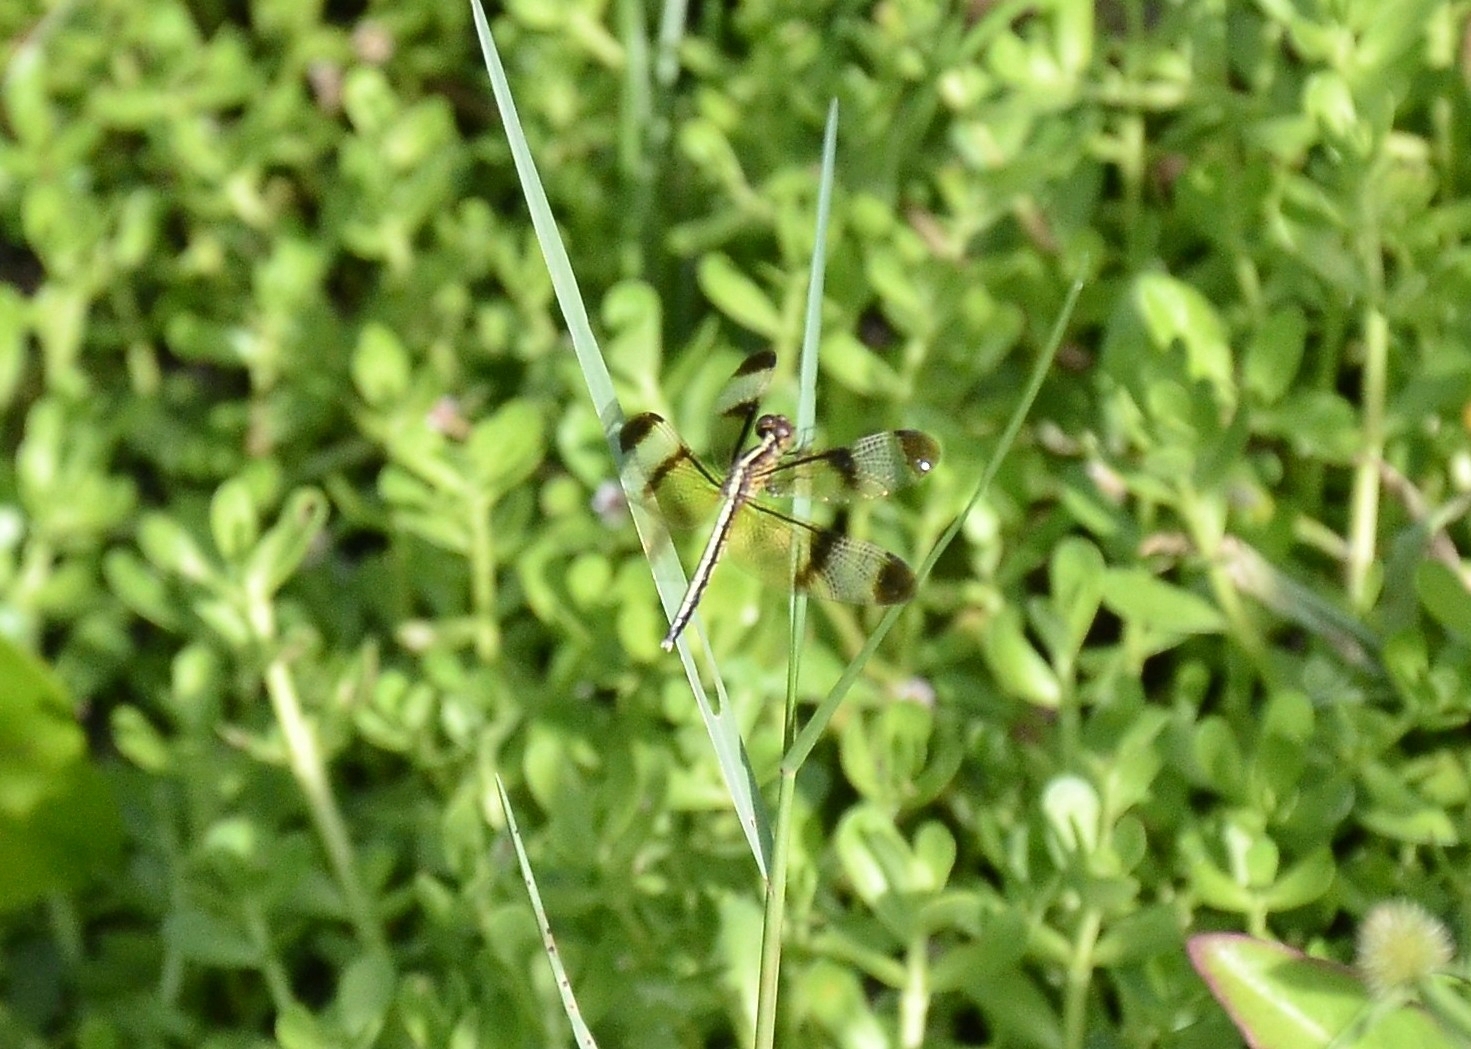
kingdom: Animalia
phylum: Arthropoda
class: Insecta
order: Odonata
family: Libellulidae
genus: Neurothemis
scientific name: Neurothemis tullia
